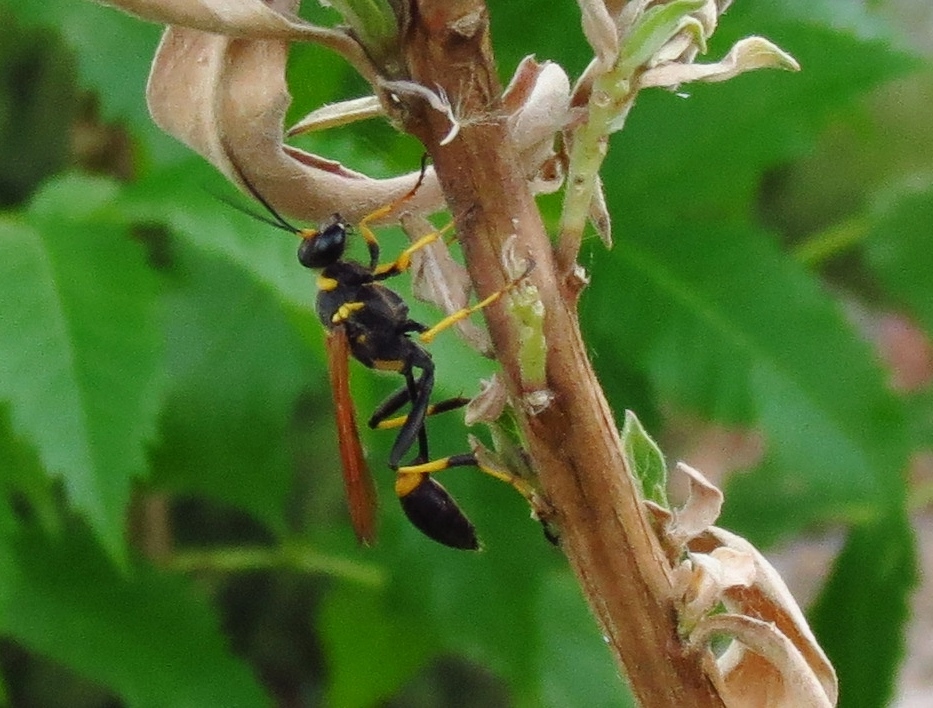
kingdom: Animalia
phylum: Arthropoda
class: Insecta
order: Hymenoptera
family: Sphecidae
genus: Sceliphron
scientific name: Sceliphron caementarium
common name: Mud dauber
